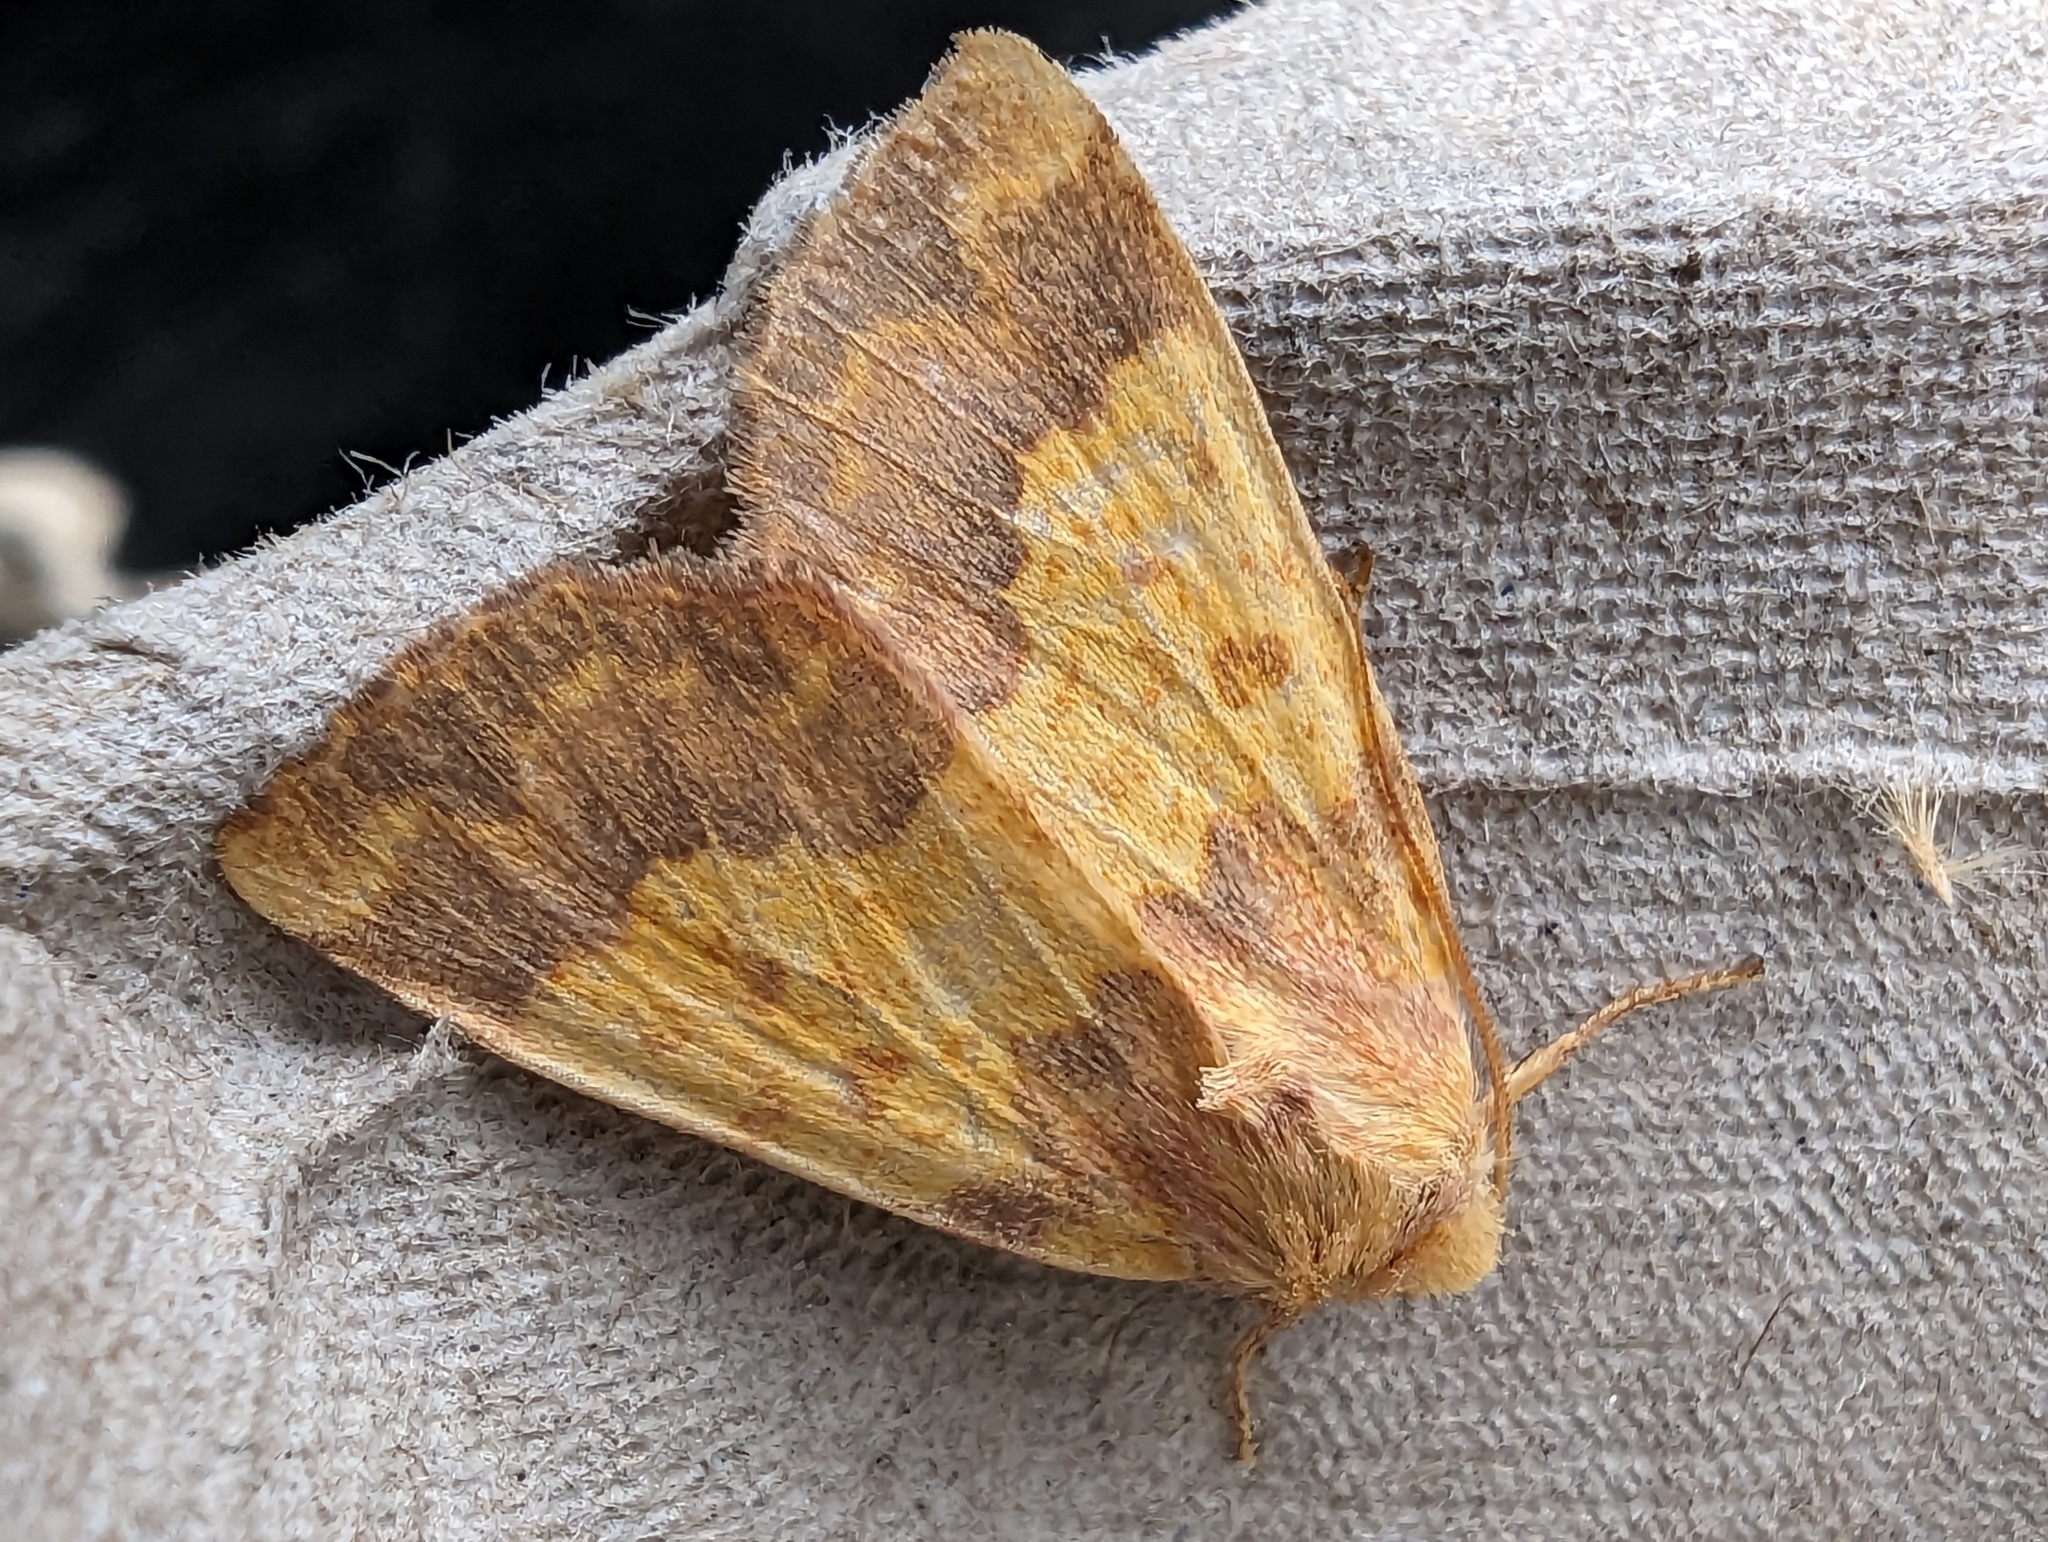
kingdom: Animalia
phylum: Arthropoda
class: Insecta
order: Lepidoptera
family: Noctuidae
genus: Tiliacea
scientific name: Tiliacea aurago
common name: Barred sallow
